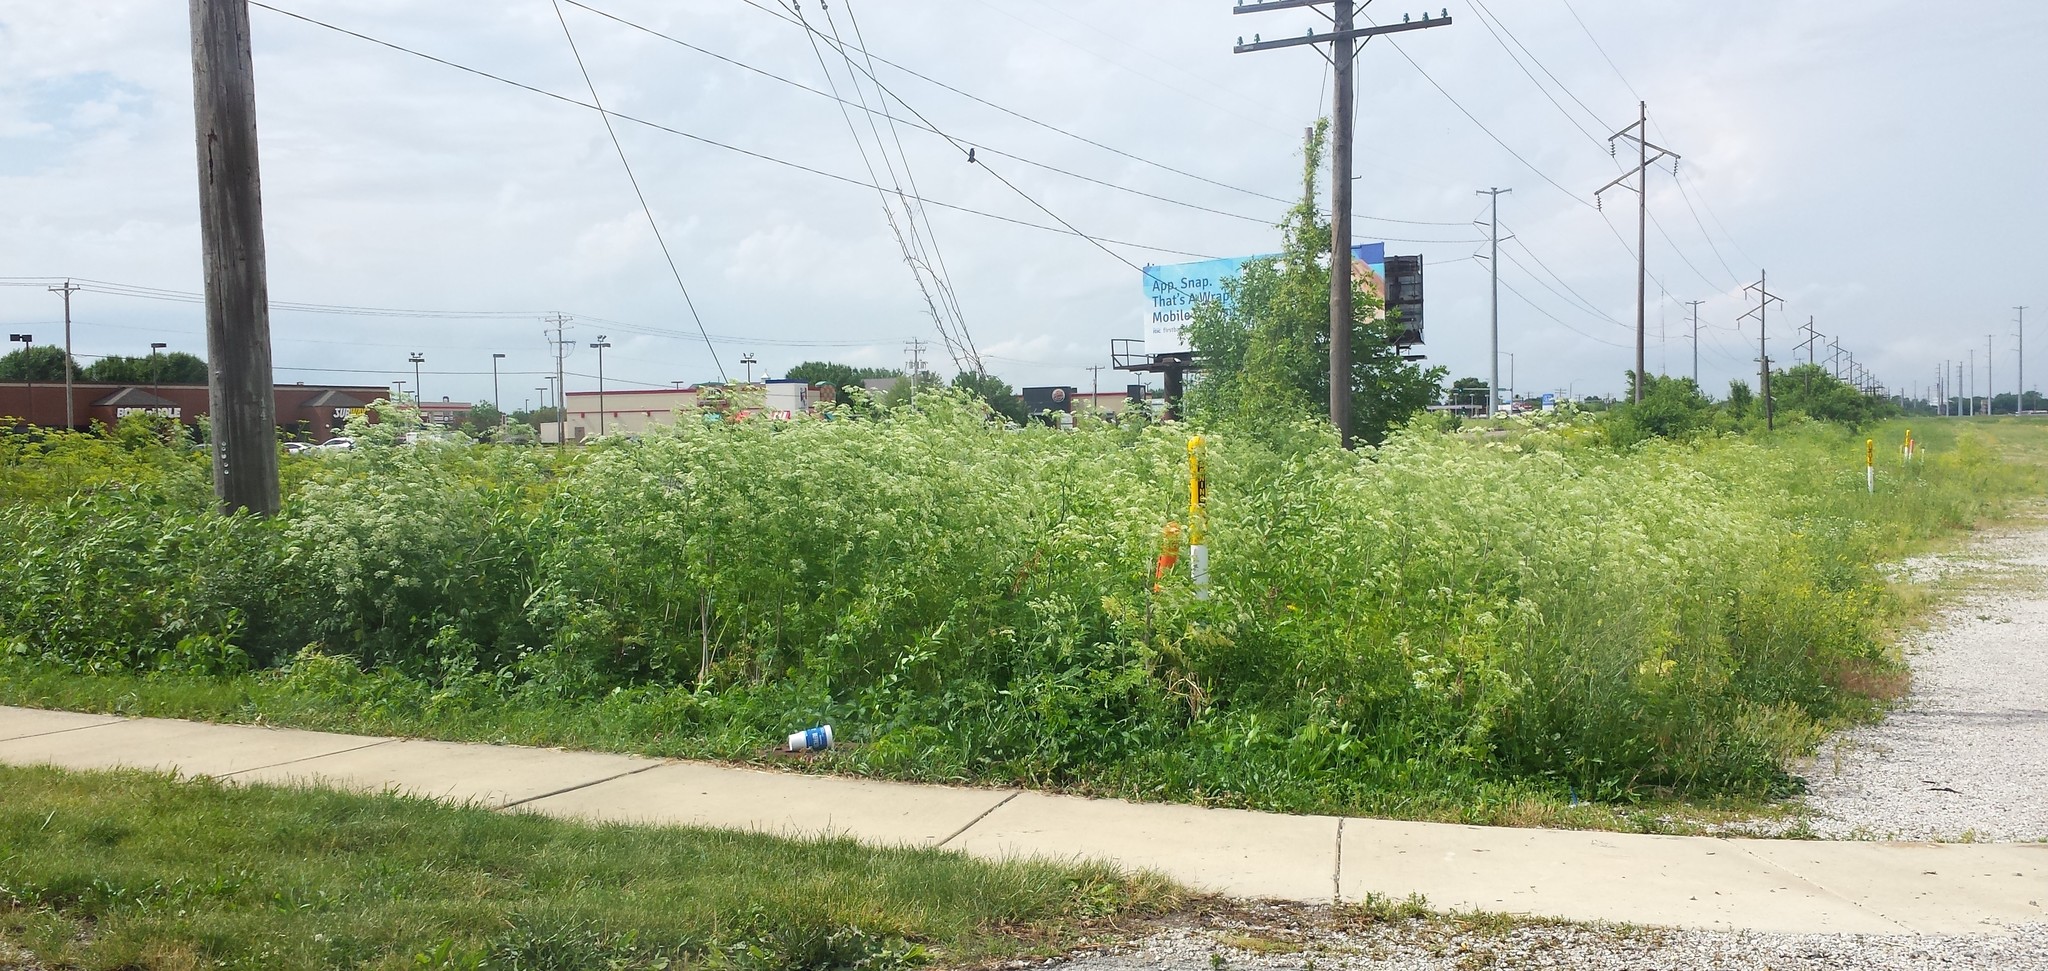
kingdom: Plantae
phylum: Tracheophyta
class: Magnoliopsida
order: Apiales
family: Apiaceae
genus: Daucus
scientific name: Daucus carota
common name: Wild carrot
